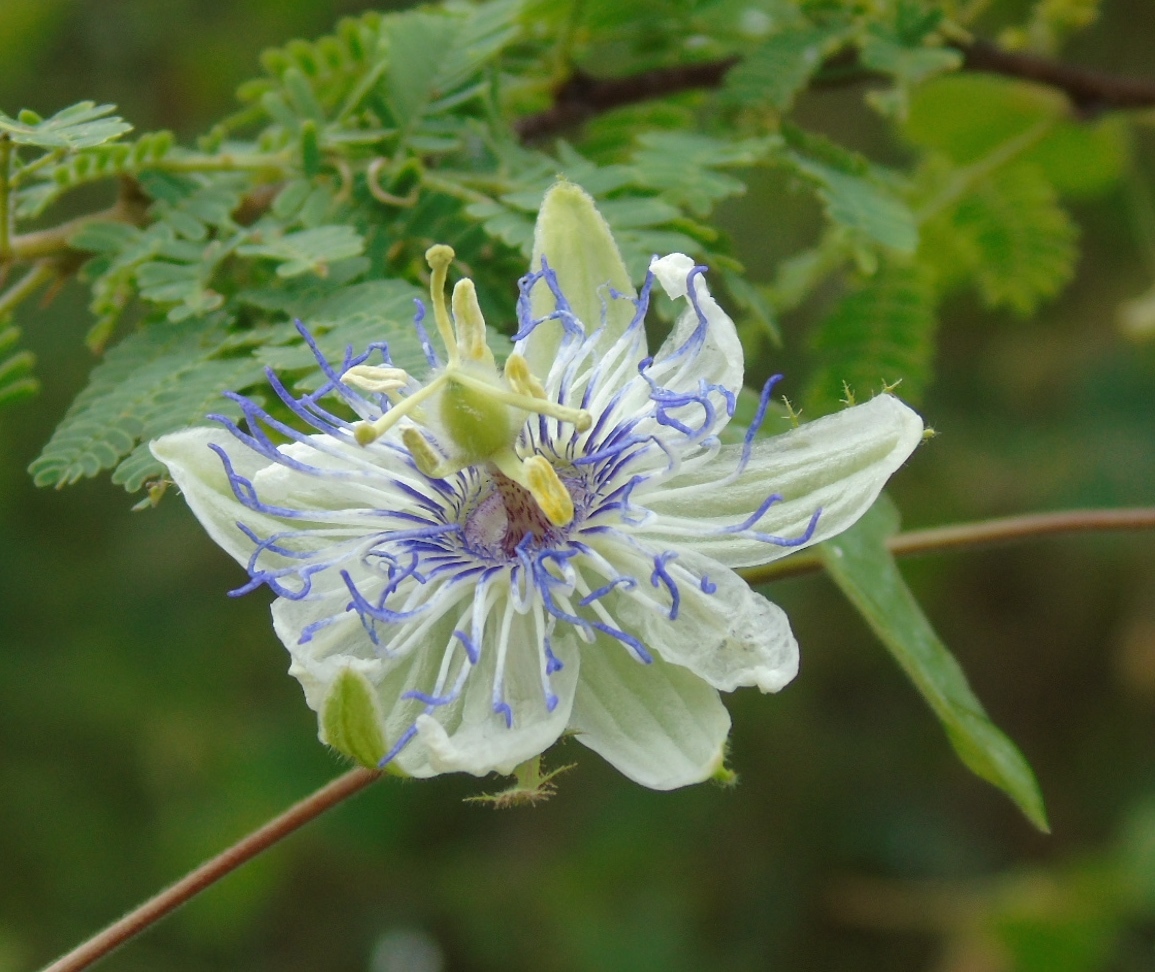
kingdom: Plantae
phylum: Tracheophyta
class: Magnoliopsida
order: Malpighiales
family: Passifloraceae
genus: Passiflora
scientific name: Passiflora foetida
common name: Fetid passionflower
